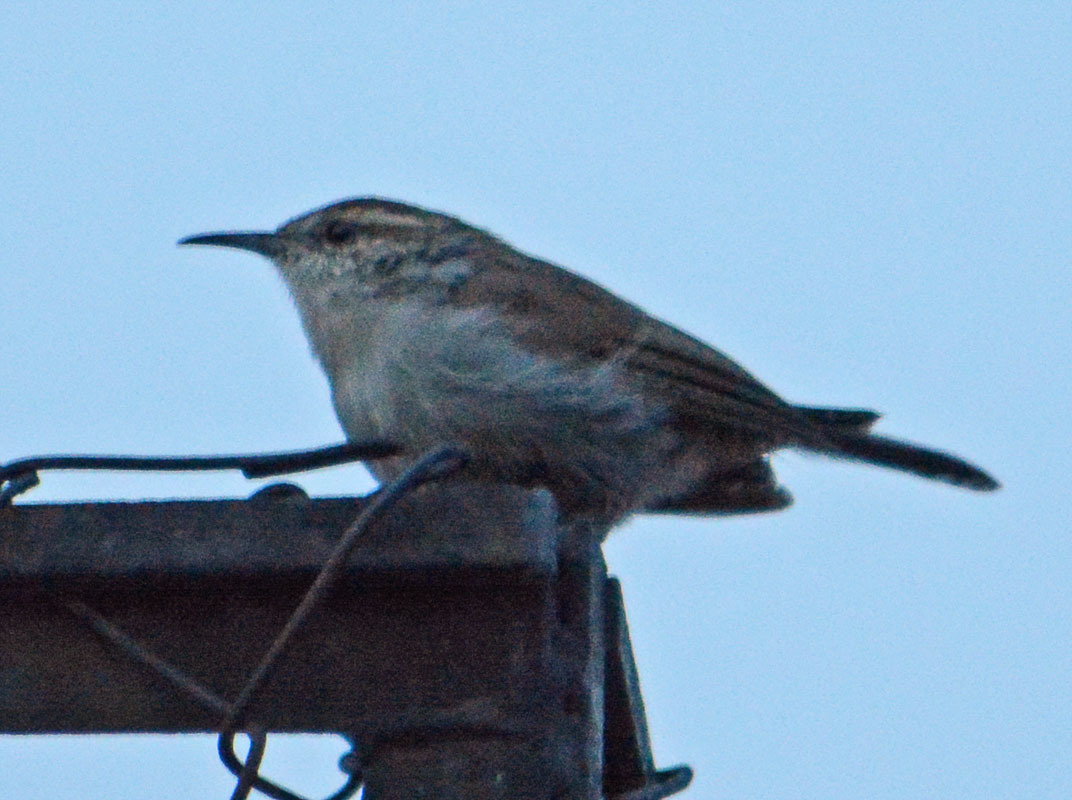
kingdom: Animalia
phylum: Chordata
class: Aves
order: Passeriformes
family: Troglodytidae
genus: Thryomanes
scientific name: Thryomanes bewickii
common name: Bewick's wren
